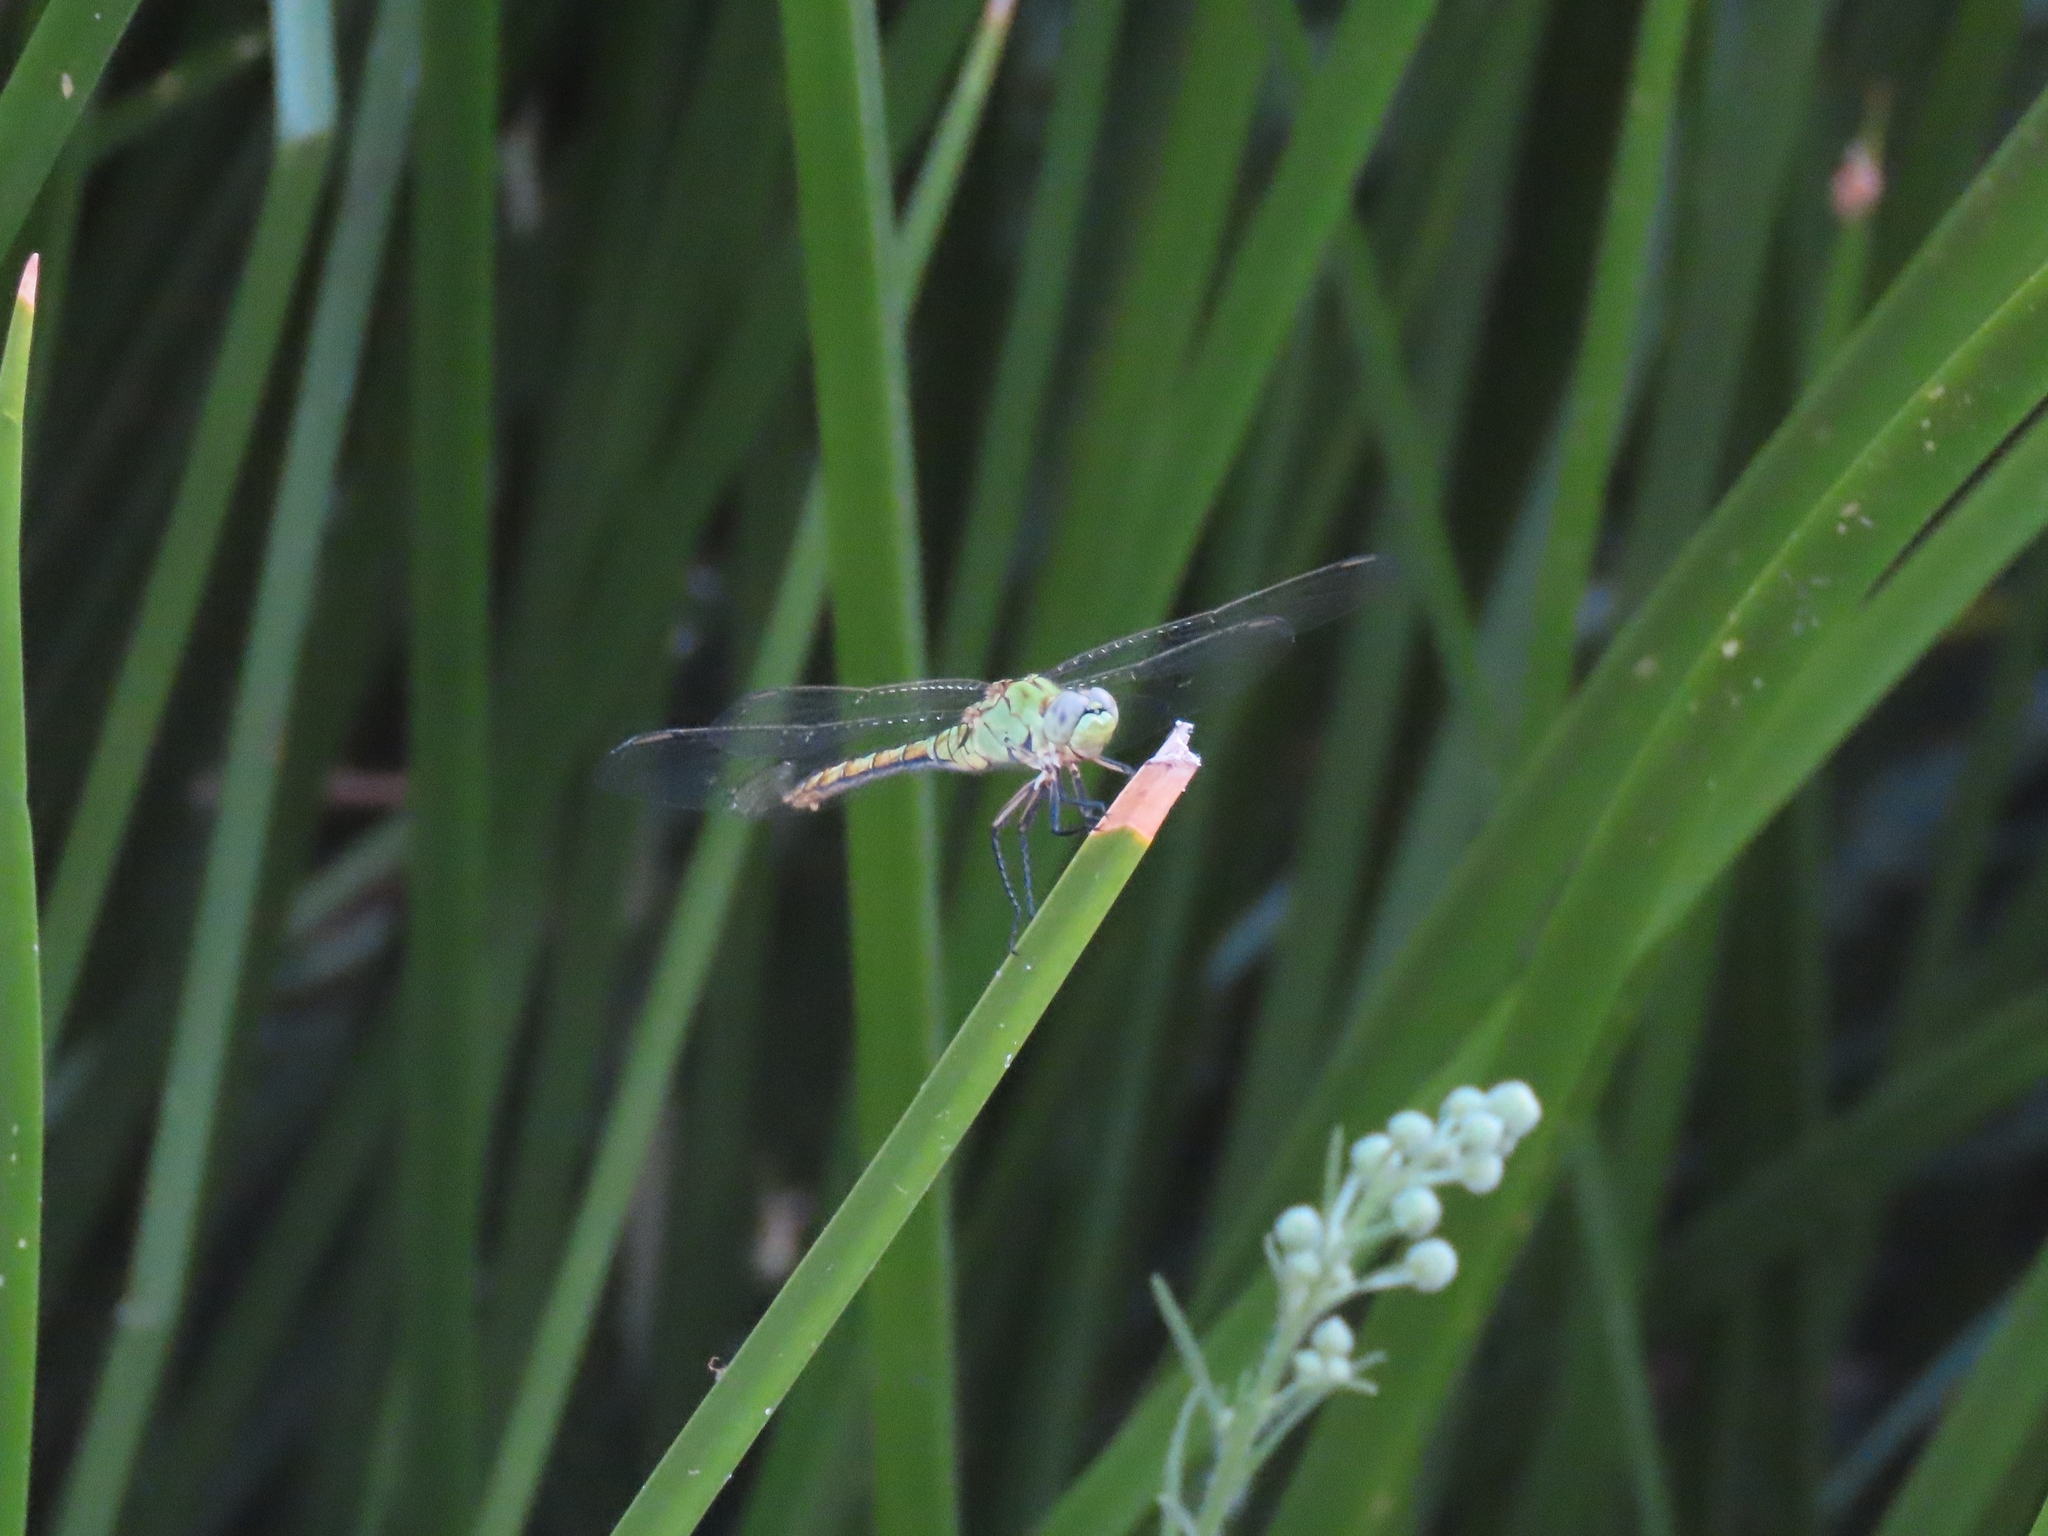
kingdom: Animalia
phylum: Arthropoda
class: Insecta
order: Odonata
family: Libellulidae
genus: Erythemis
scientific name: Erythemis collocata
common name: Western pondhawk
